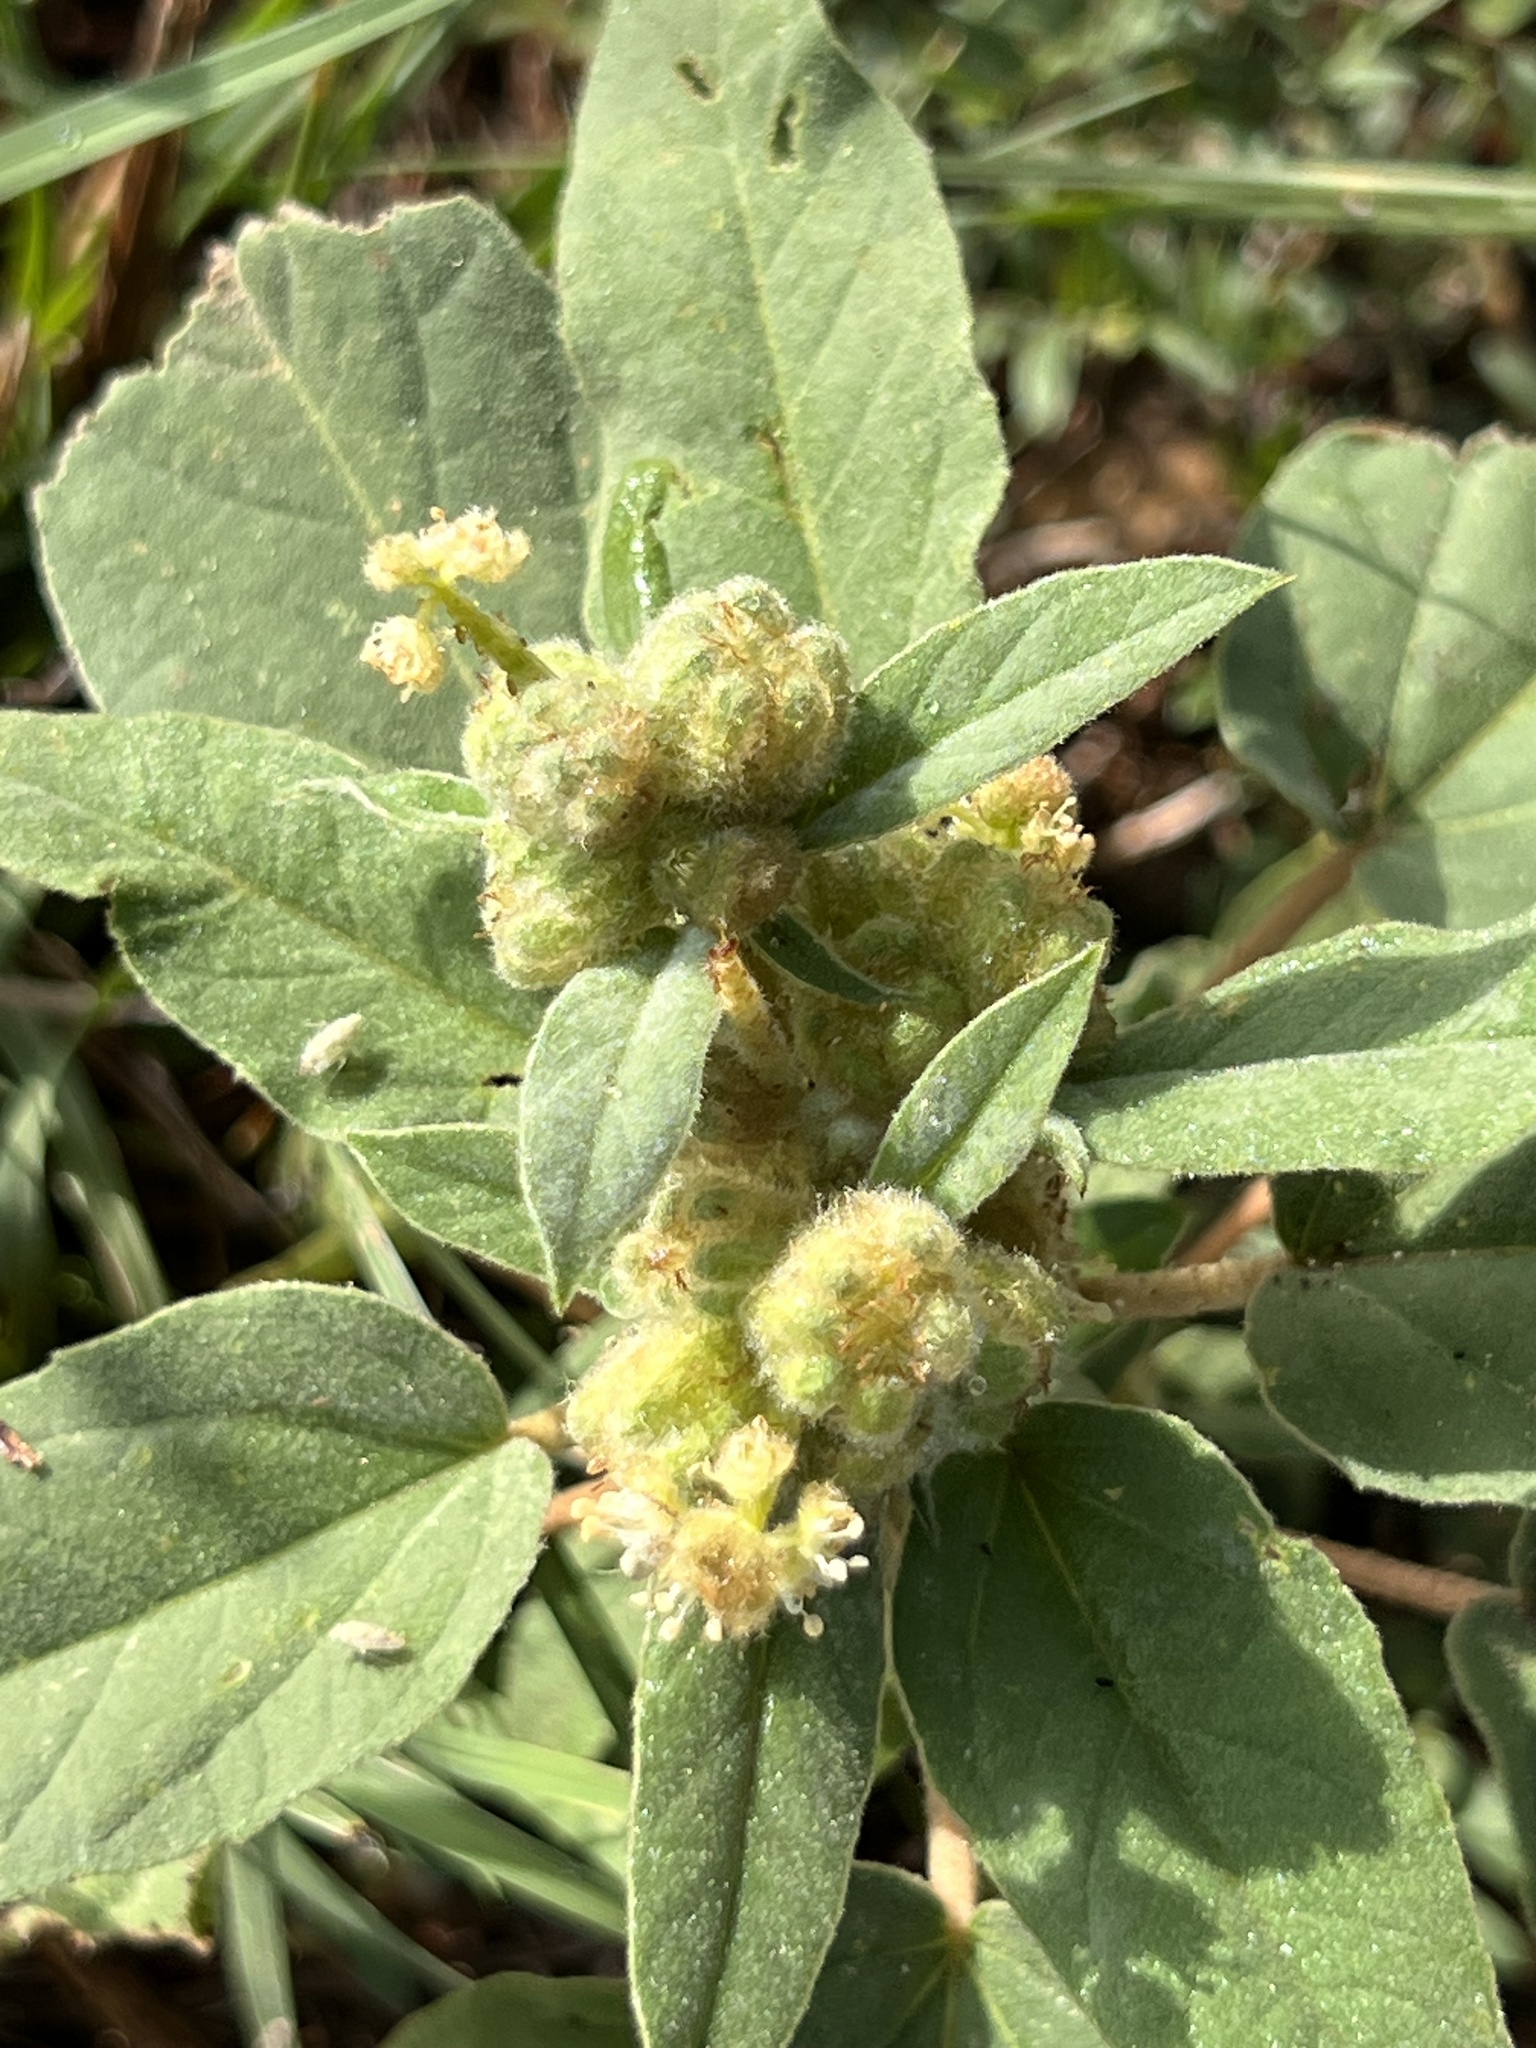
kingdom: Plantae
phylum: Tracheophyta
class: Magnoliopsida
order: Malpighiales
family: Euphorbiaceae
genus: Croton
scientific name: Croton lindheimeri
